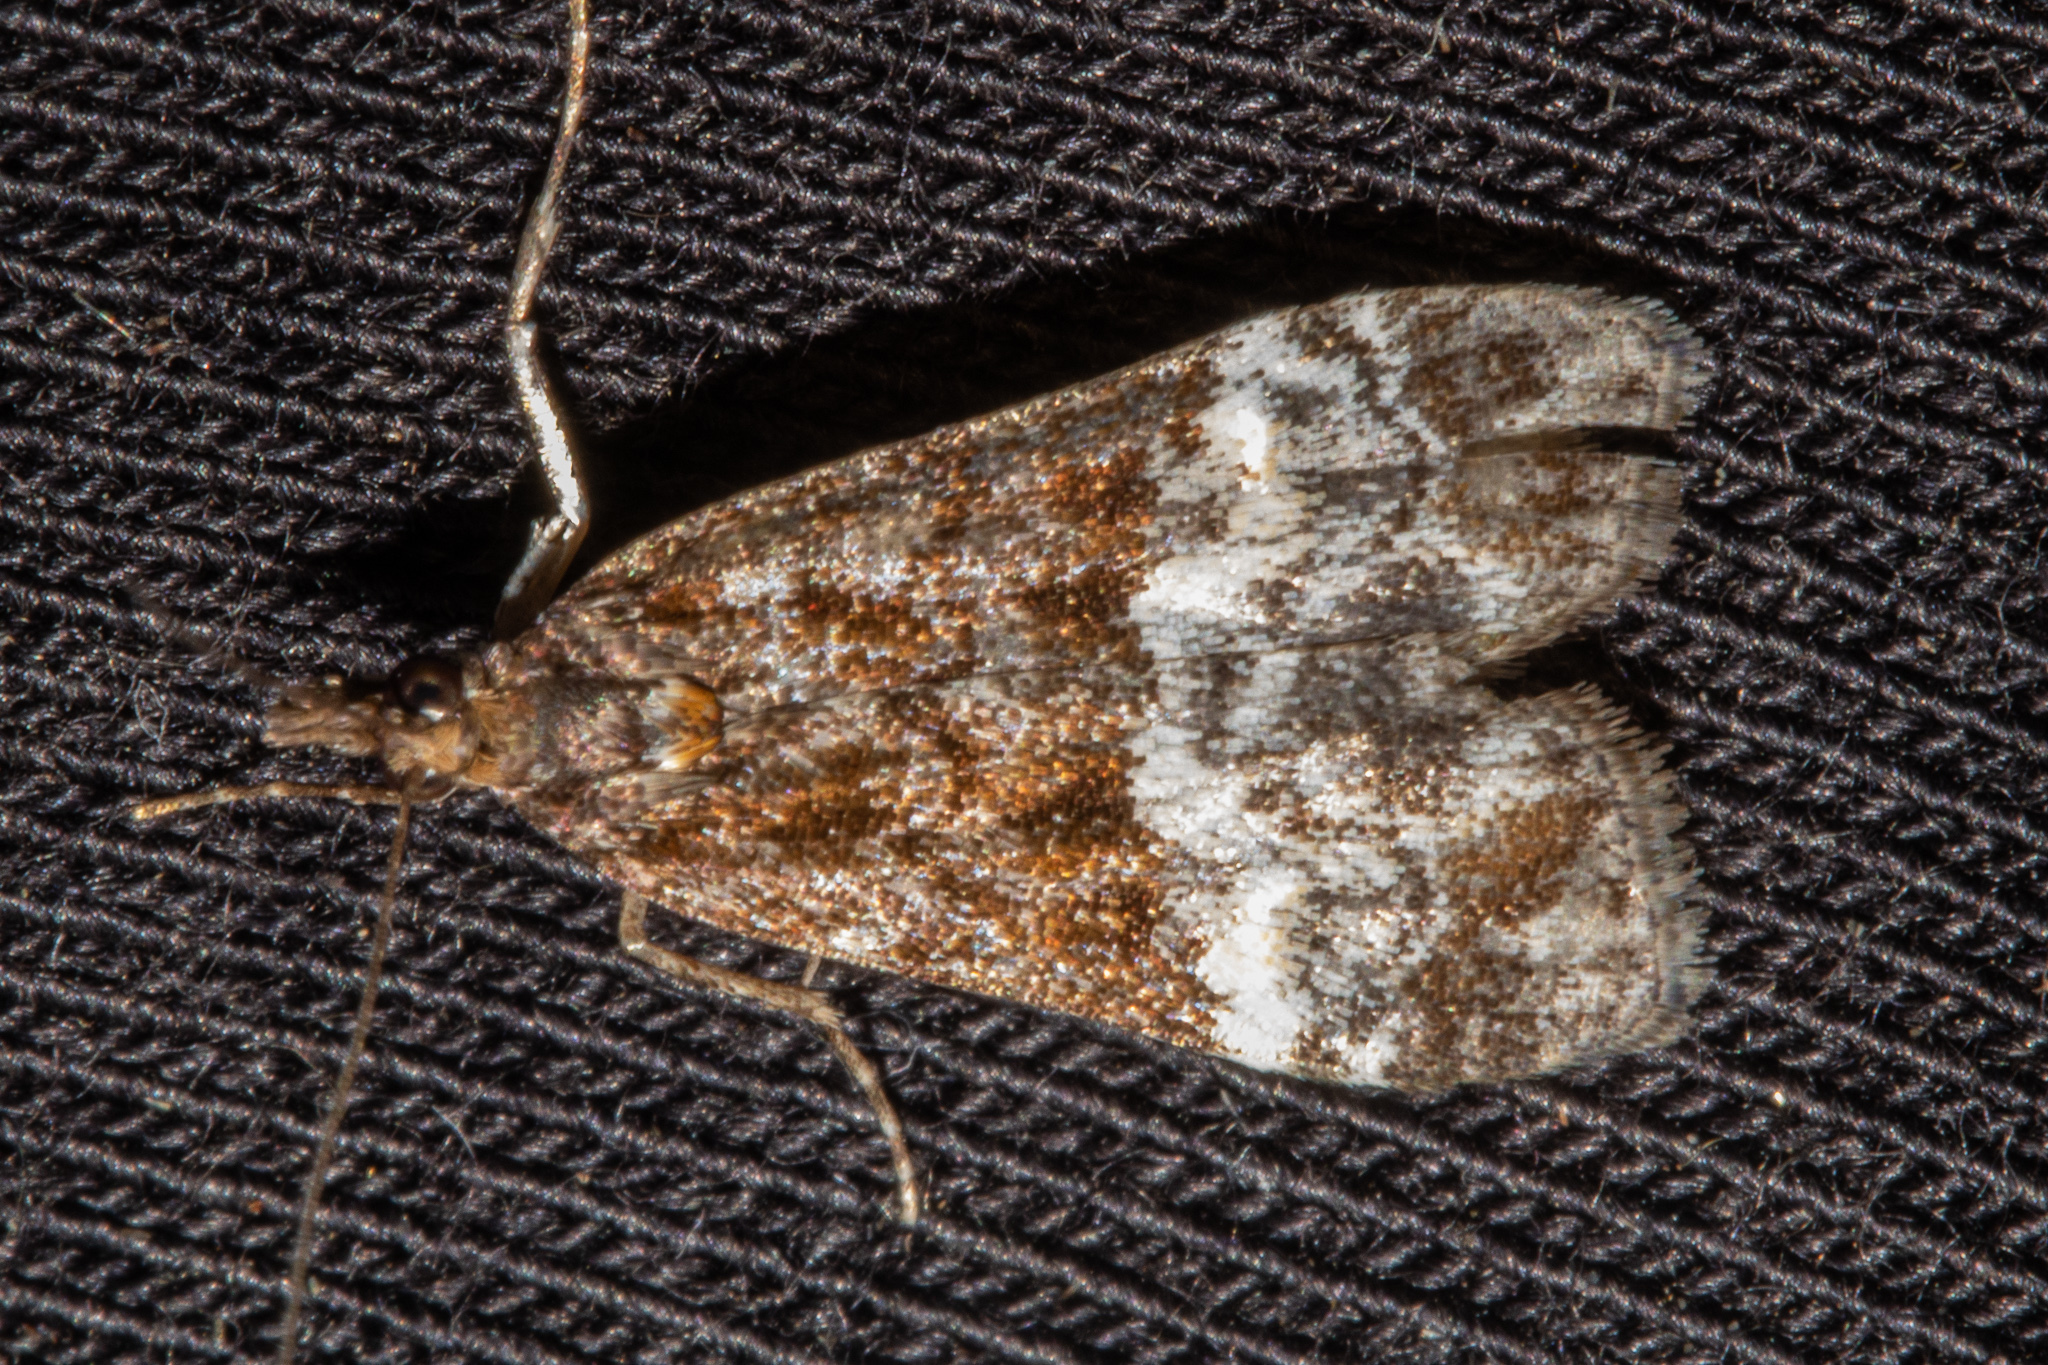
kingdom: Animalia
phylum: Arthropoda
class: Insecta
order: Lepidoptera
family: Crambidae
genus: Scoparia
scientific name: Scoparia minusculalis
